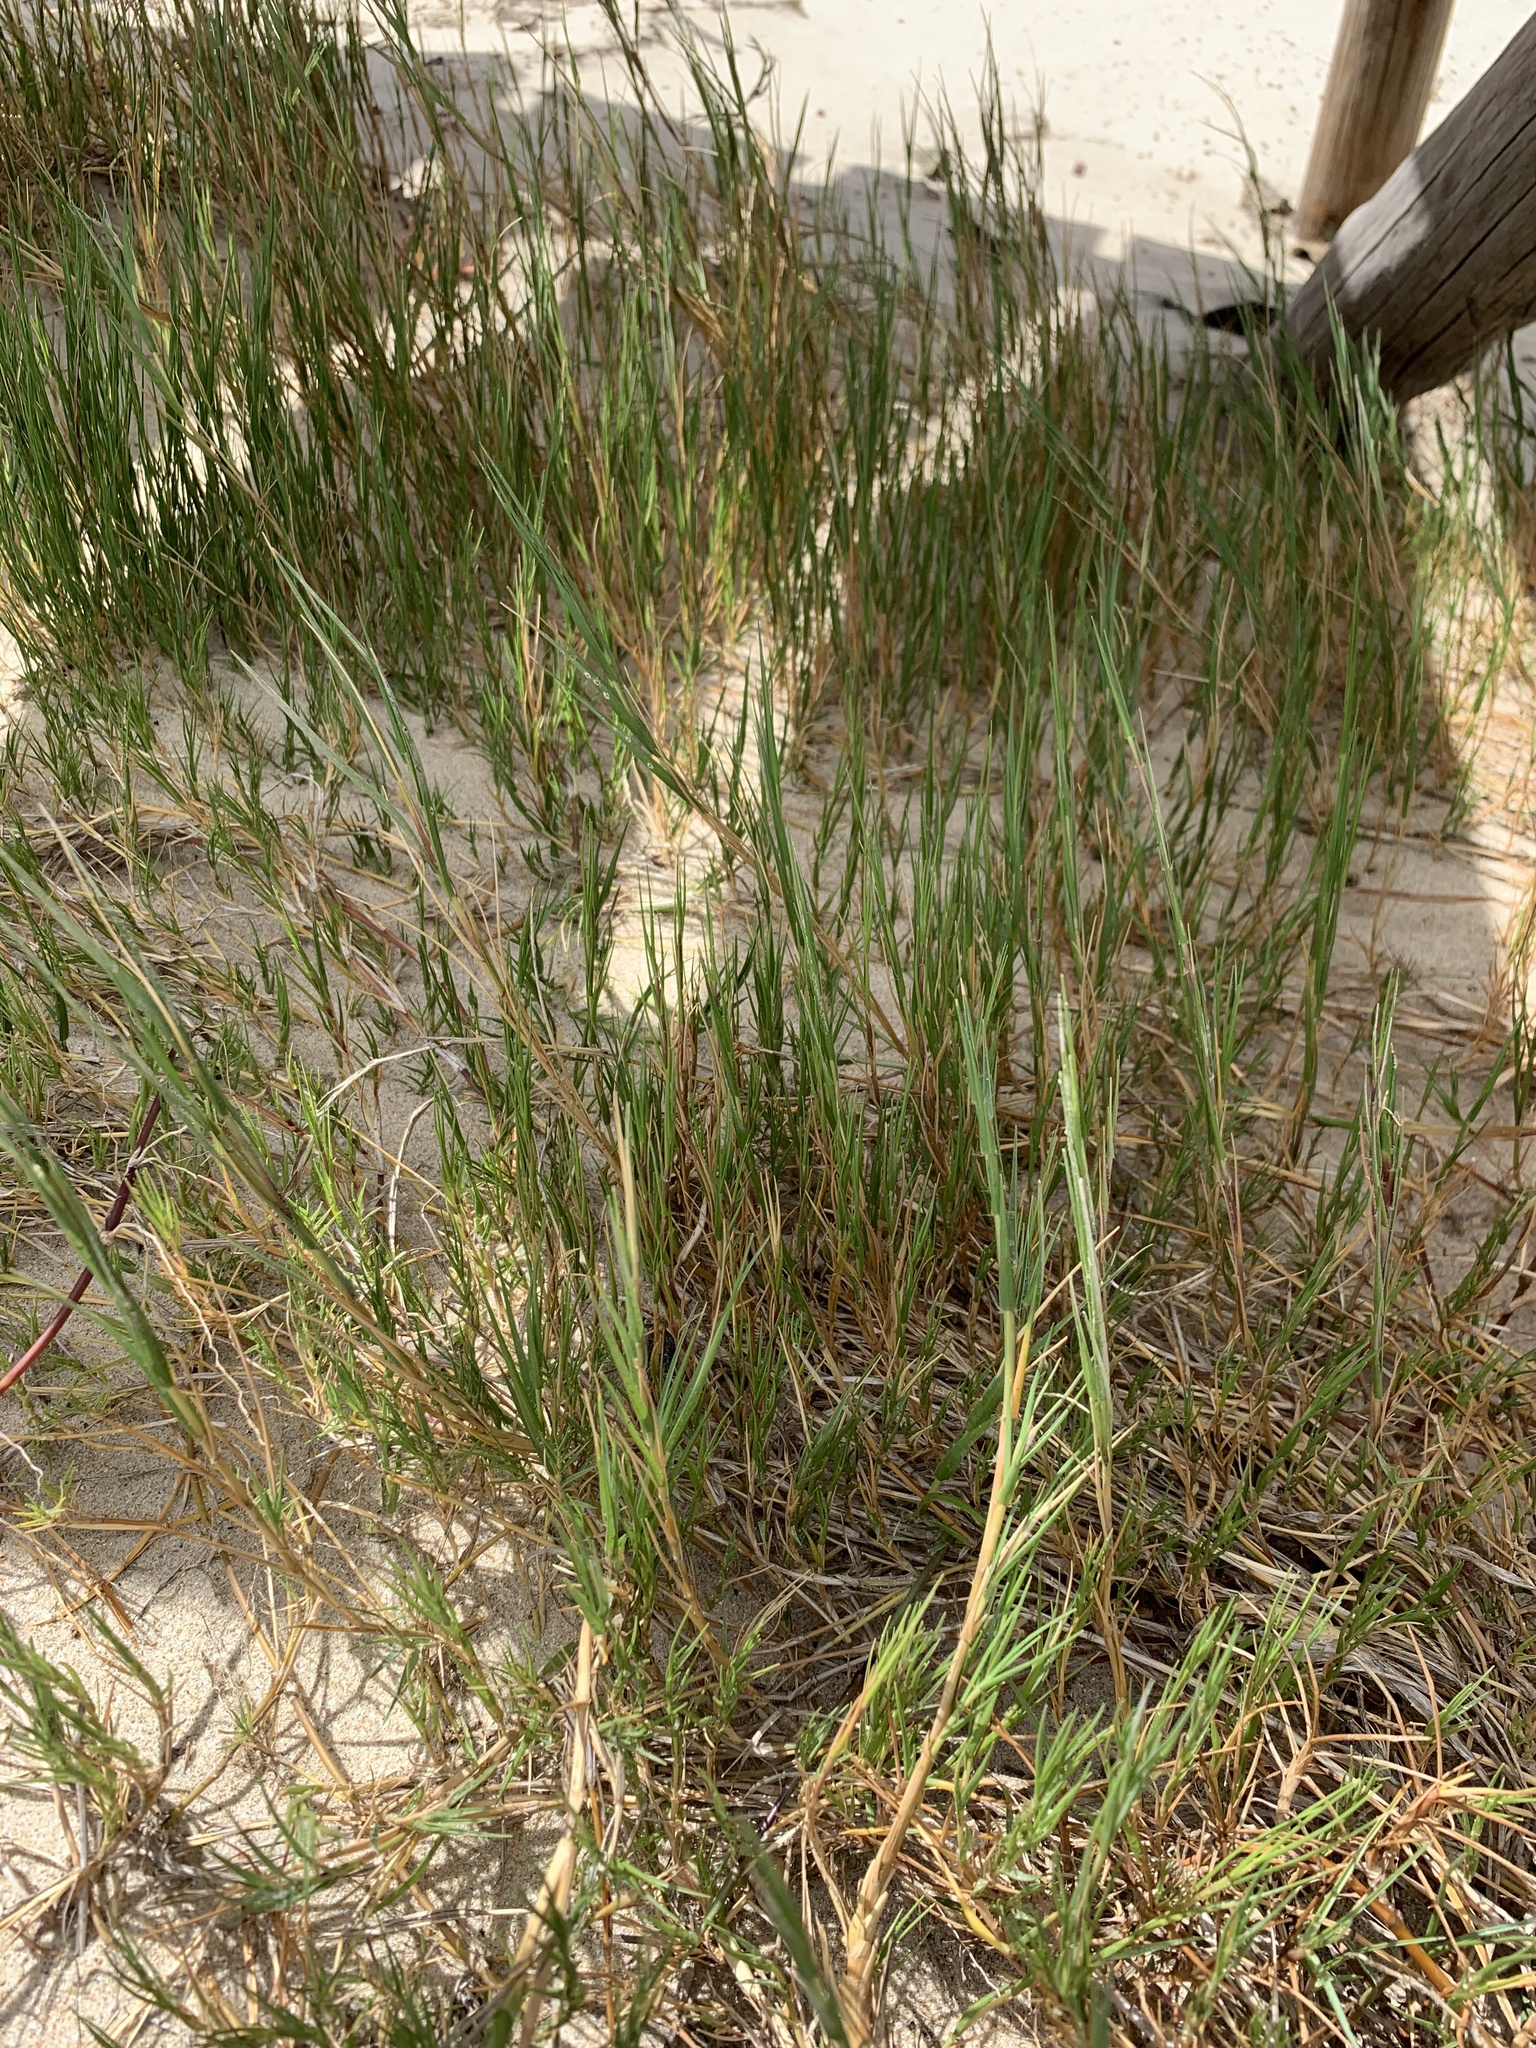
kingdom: Plantae
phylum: Tracheophyta
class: Liliopsida
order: Poales
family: Poaceae
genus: Sporobolus
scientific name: Sporobolus virginicus
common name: Beach dropseed
